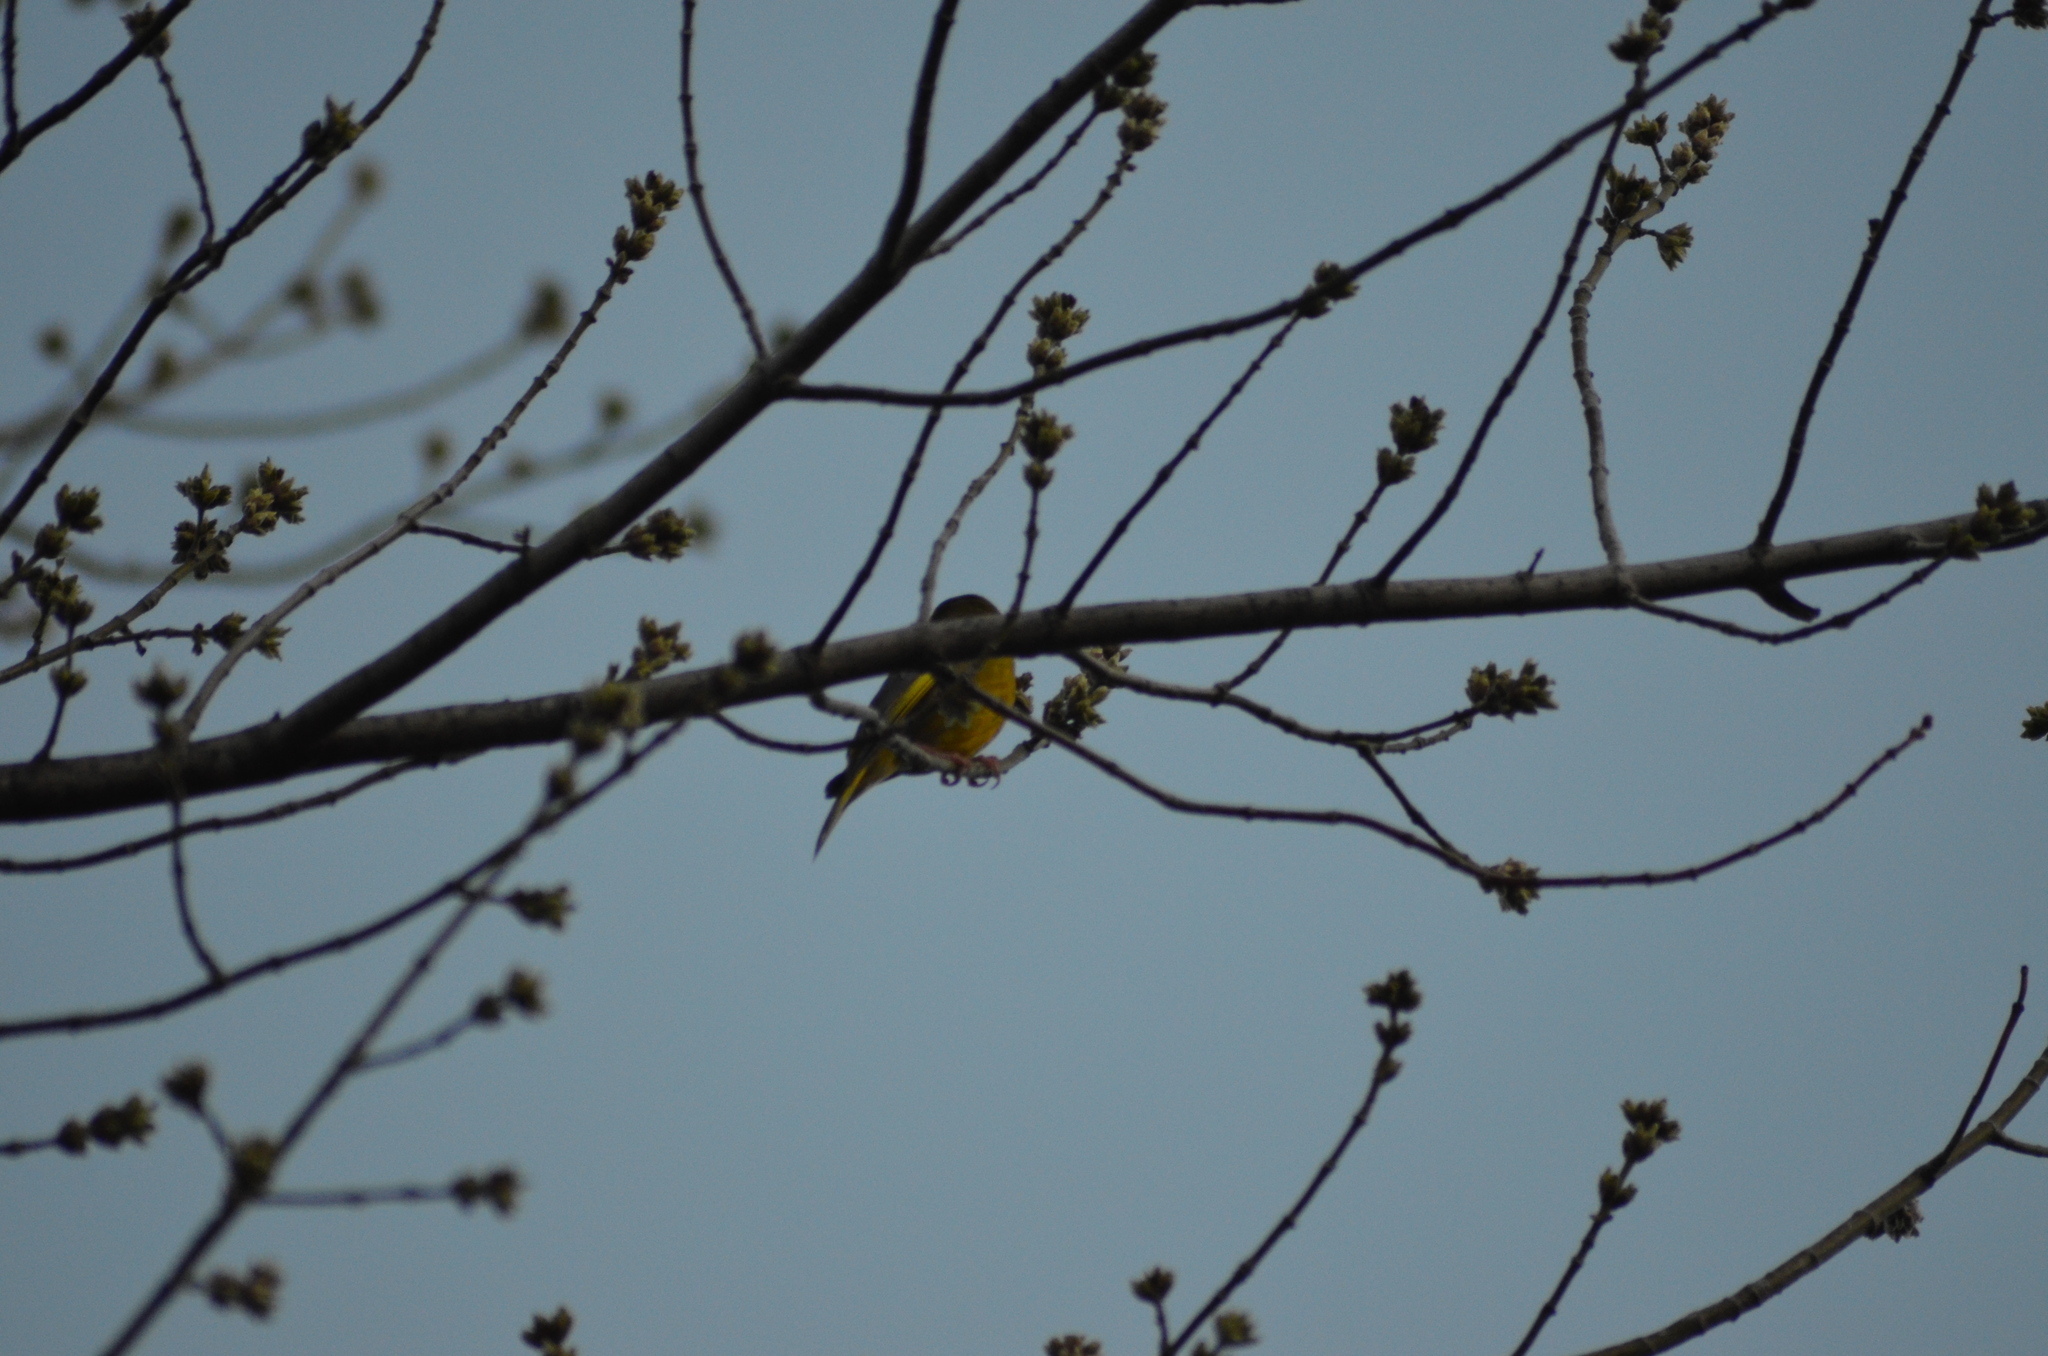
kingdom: Plantae
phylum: Tracheophyta
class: Liliopsida
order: Poales
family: Poaceae
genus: Chloris
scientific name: Chloris chloris
